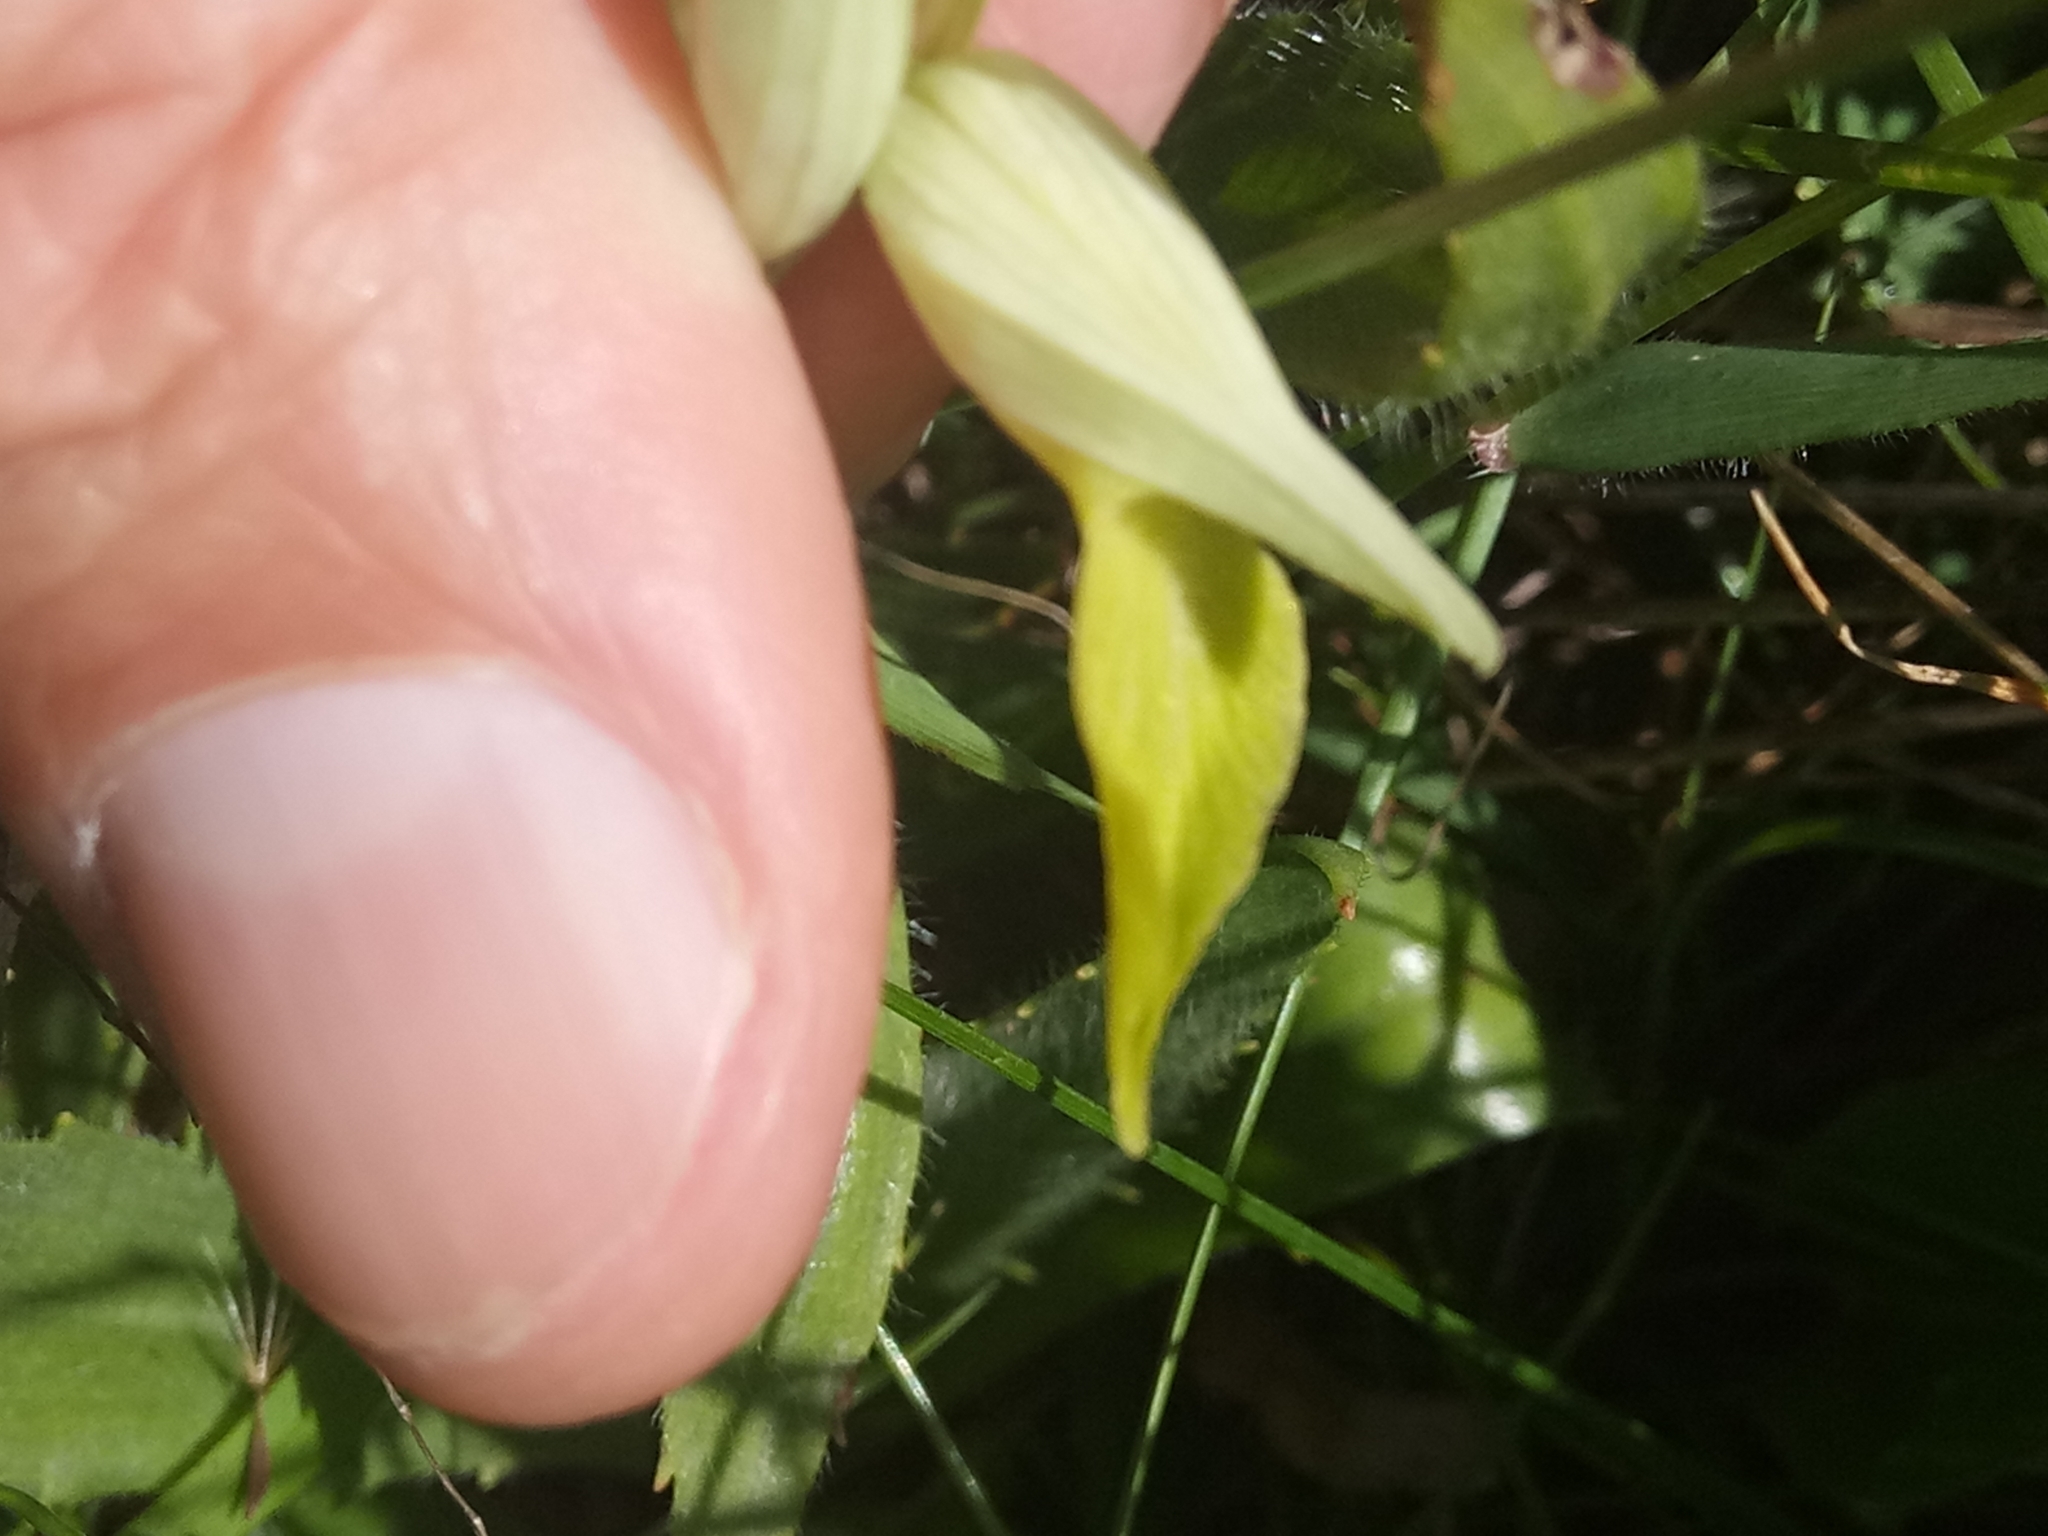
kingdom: Plantae
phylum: Tracheophyta
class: Liliopsida
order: Asparagales
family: Orchidaceae
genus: Serapias
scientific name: Serapias lingua
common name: Tongue-orchid
